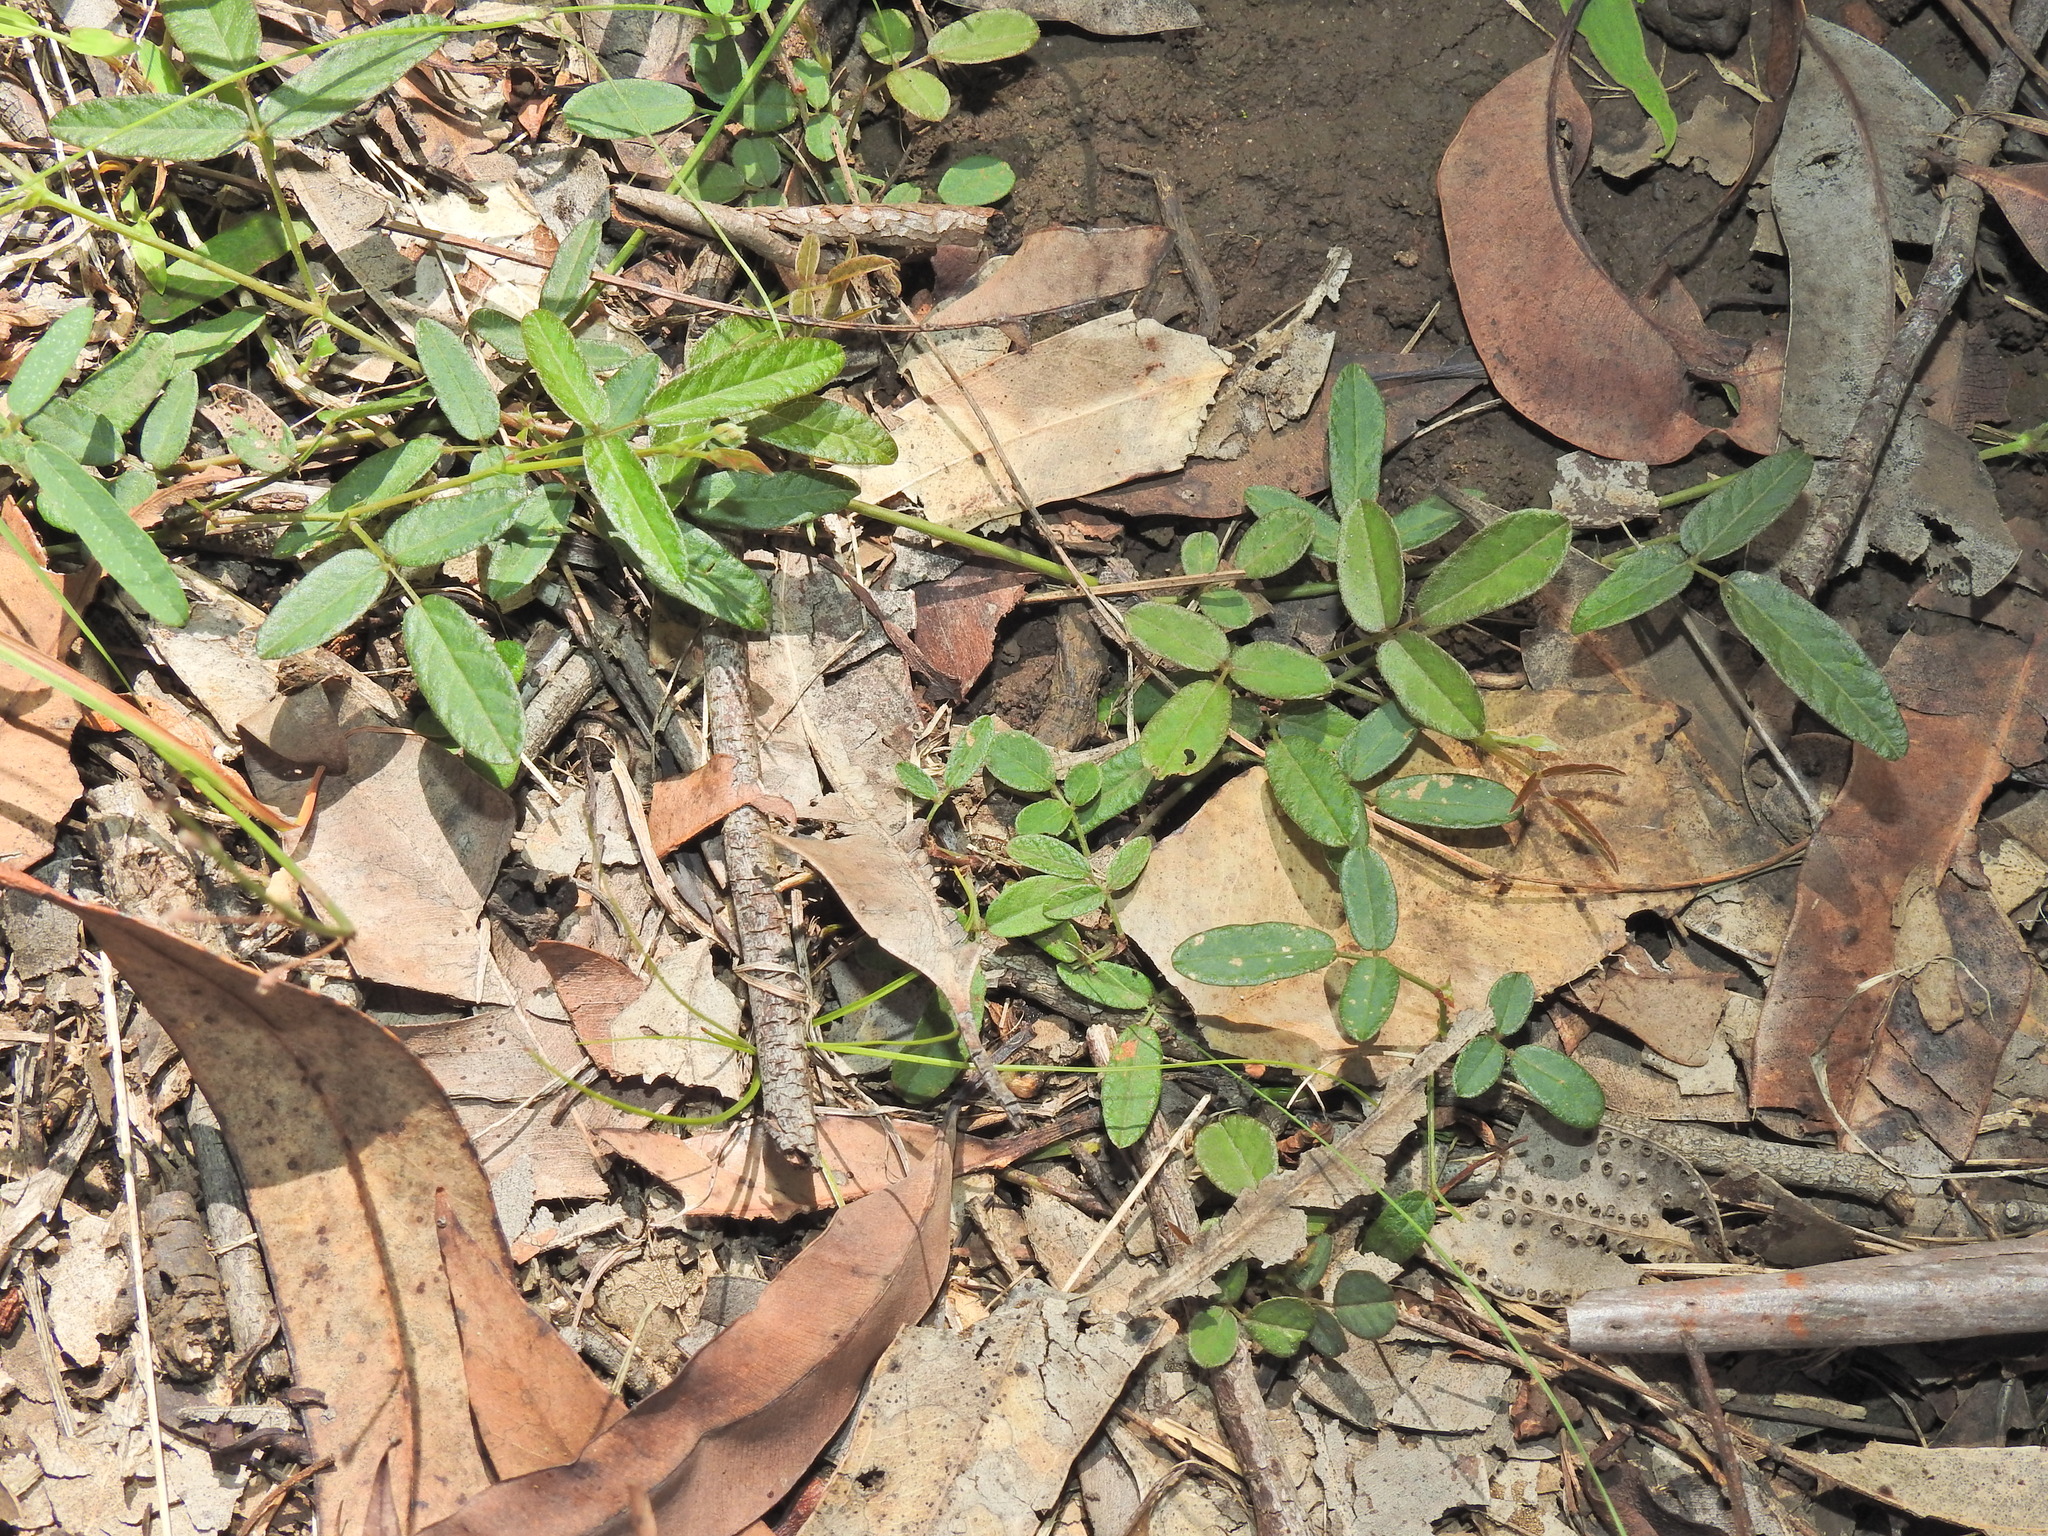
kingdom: Plantae
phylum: Tracheophyta
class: Magnoliopsida
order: Fabales
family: Fabaceae
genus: Grona
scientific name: Grona varians
